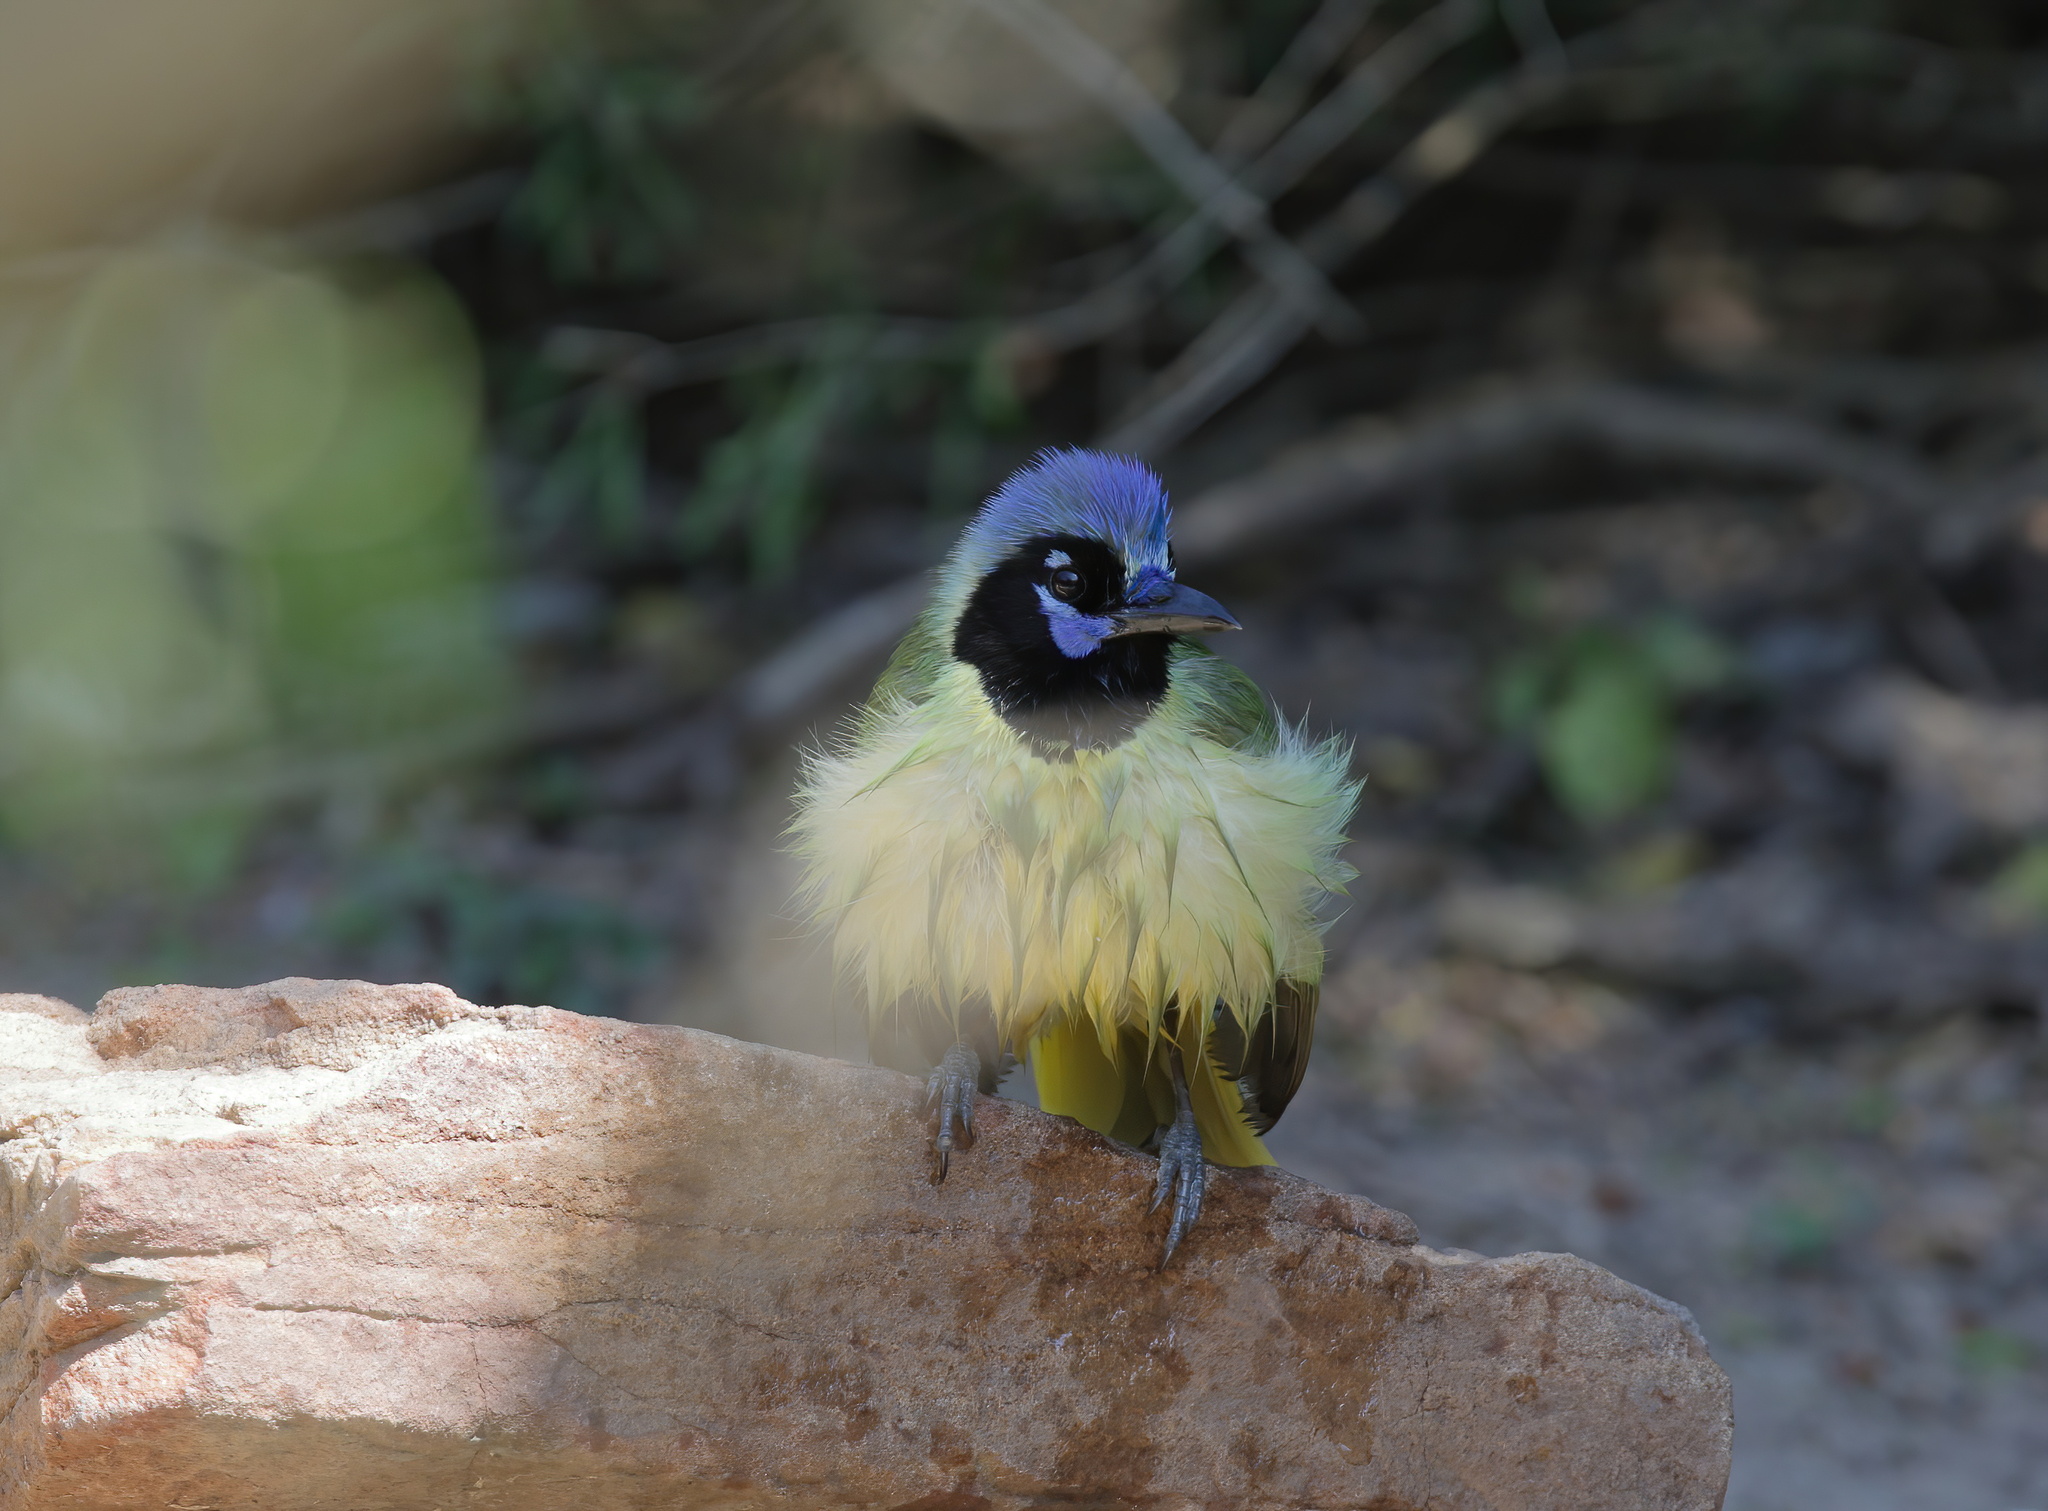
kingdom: Animalia
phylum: Chordata
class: Aves
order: Passeriformes
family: Corvidae
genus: Cyanocorax
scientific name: Cyanocorax yncas
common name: Green jay
